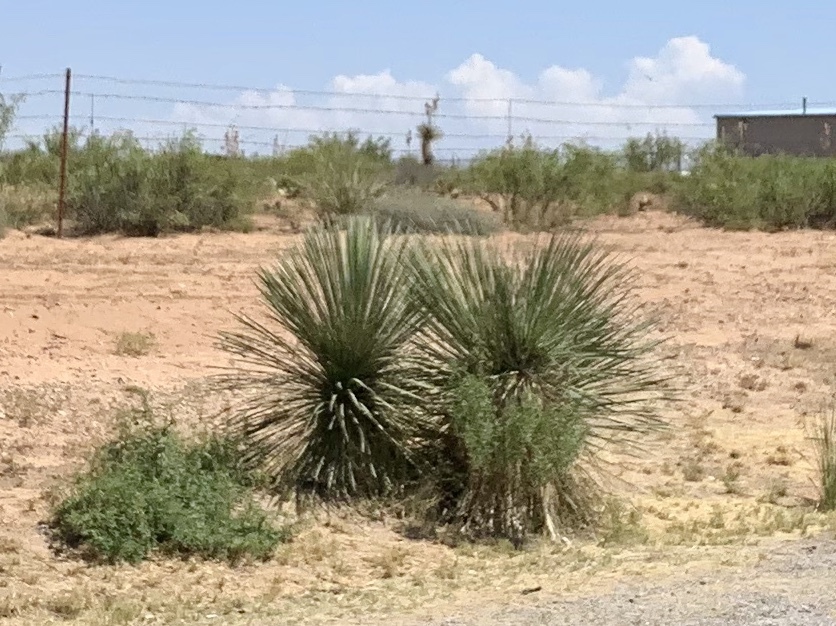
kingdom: Plantae
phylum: Tracheophyta
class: Liliopsida
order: Asparagales
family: Asparagaceae
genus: Yucca
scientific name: Yucca elata
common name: Palmella
